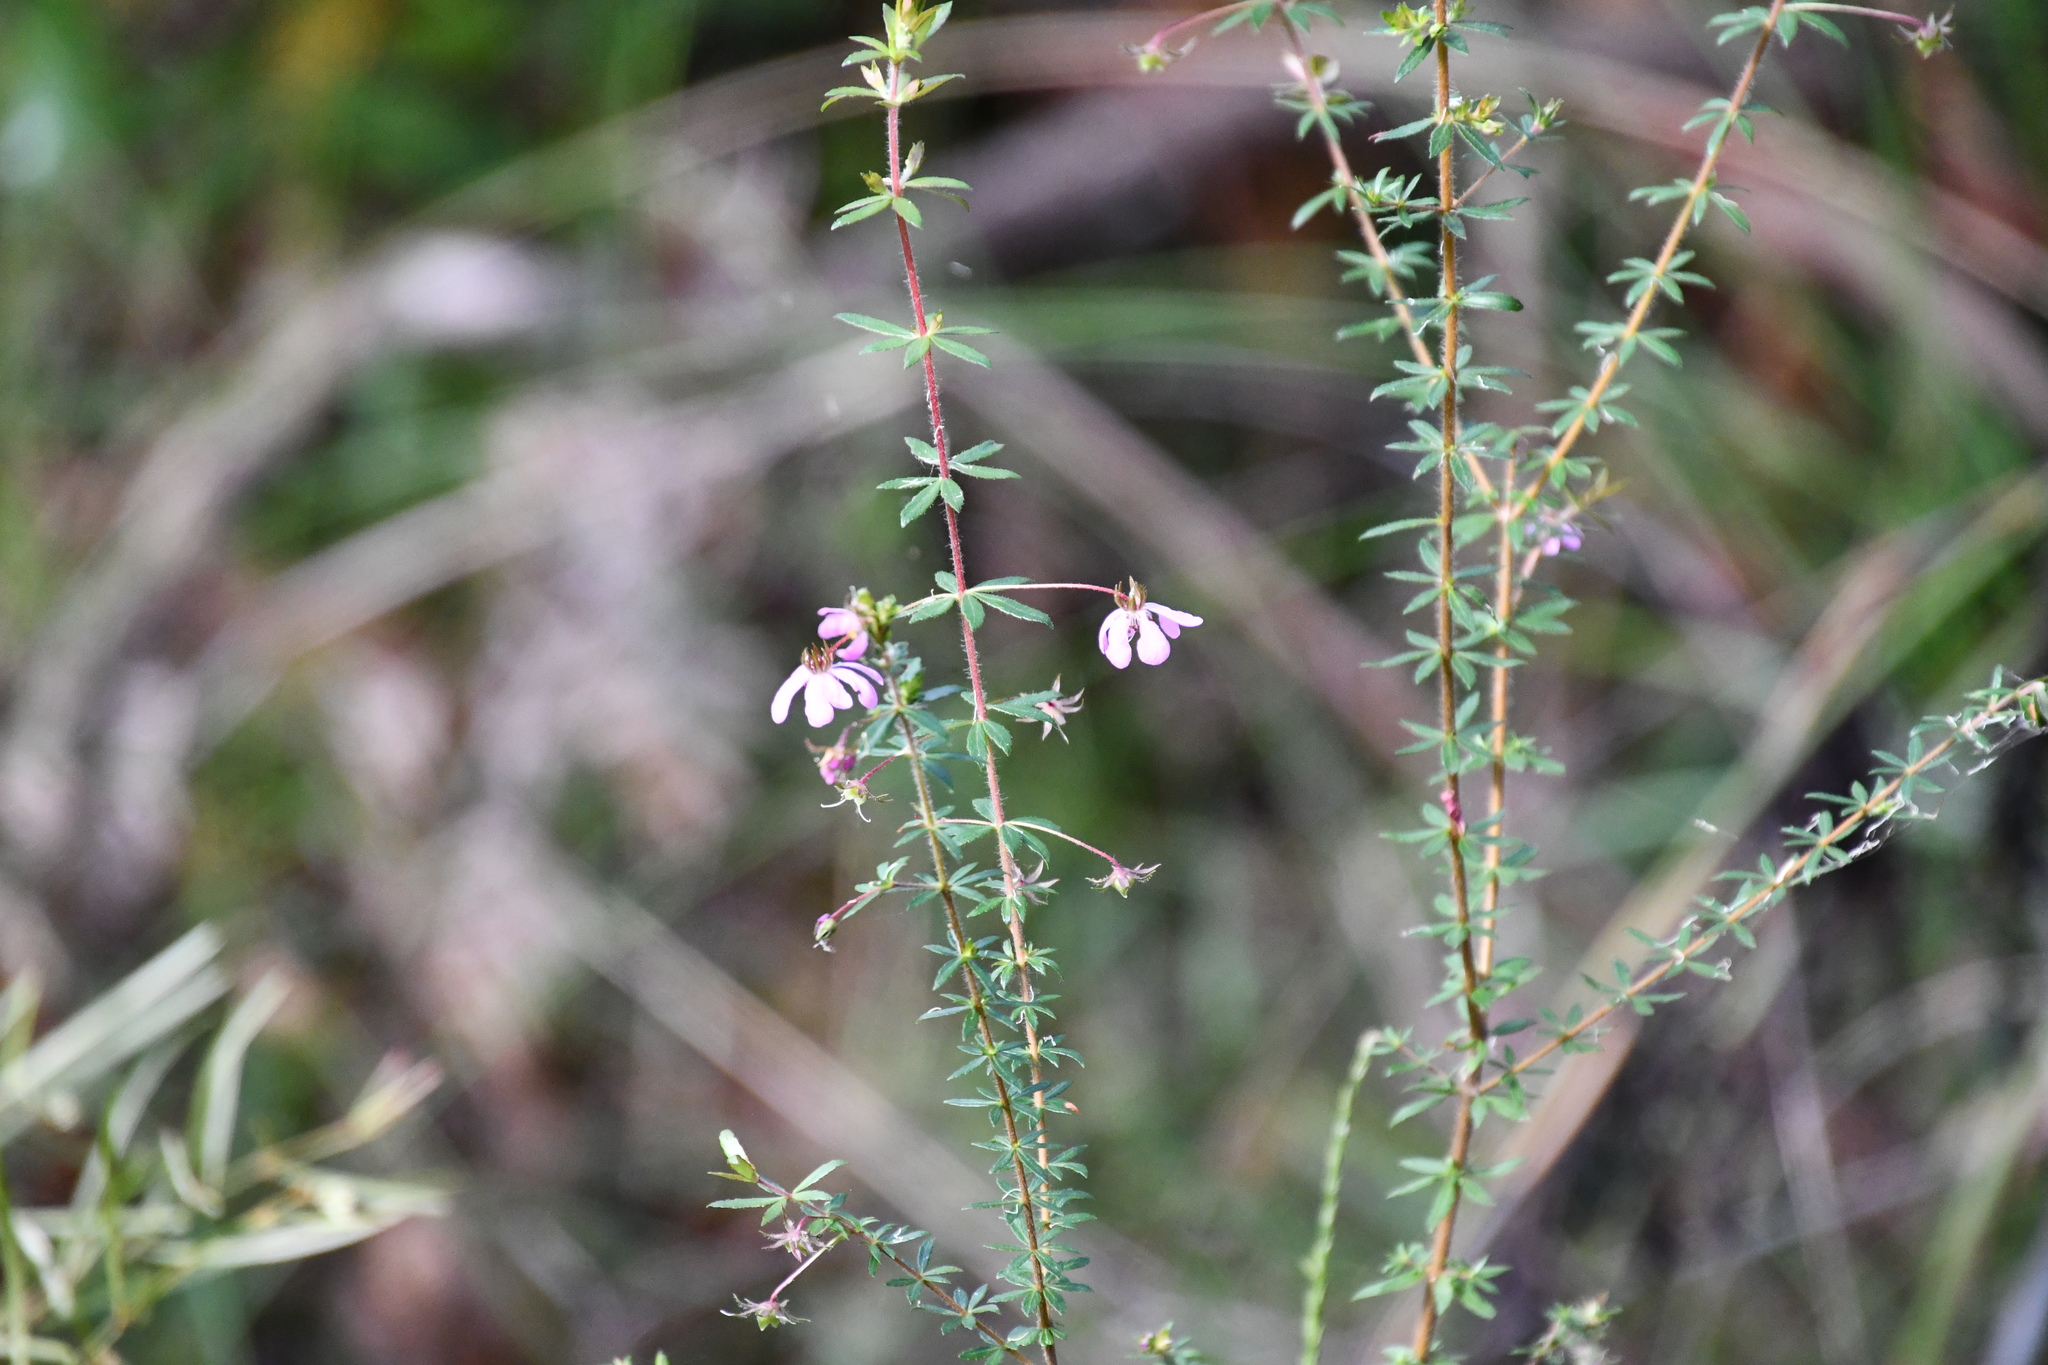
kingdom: Plantae
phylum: Tracheophyta
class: Magnoliopsida
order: Oxalidales
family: Cunoniaceae
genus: Bauera
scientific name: Bauera rubioides
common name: River-rose
